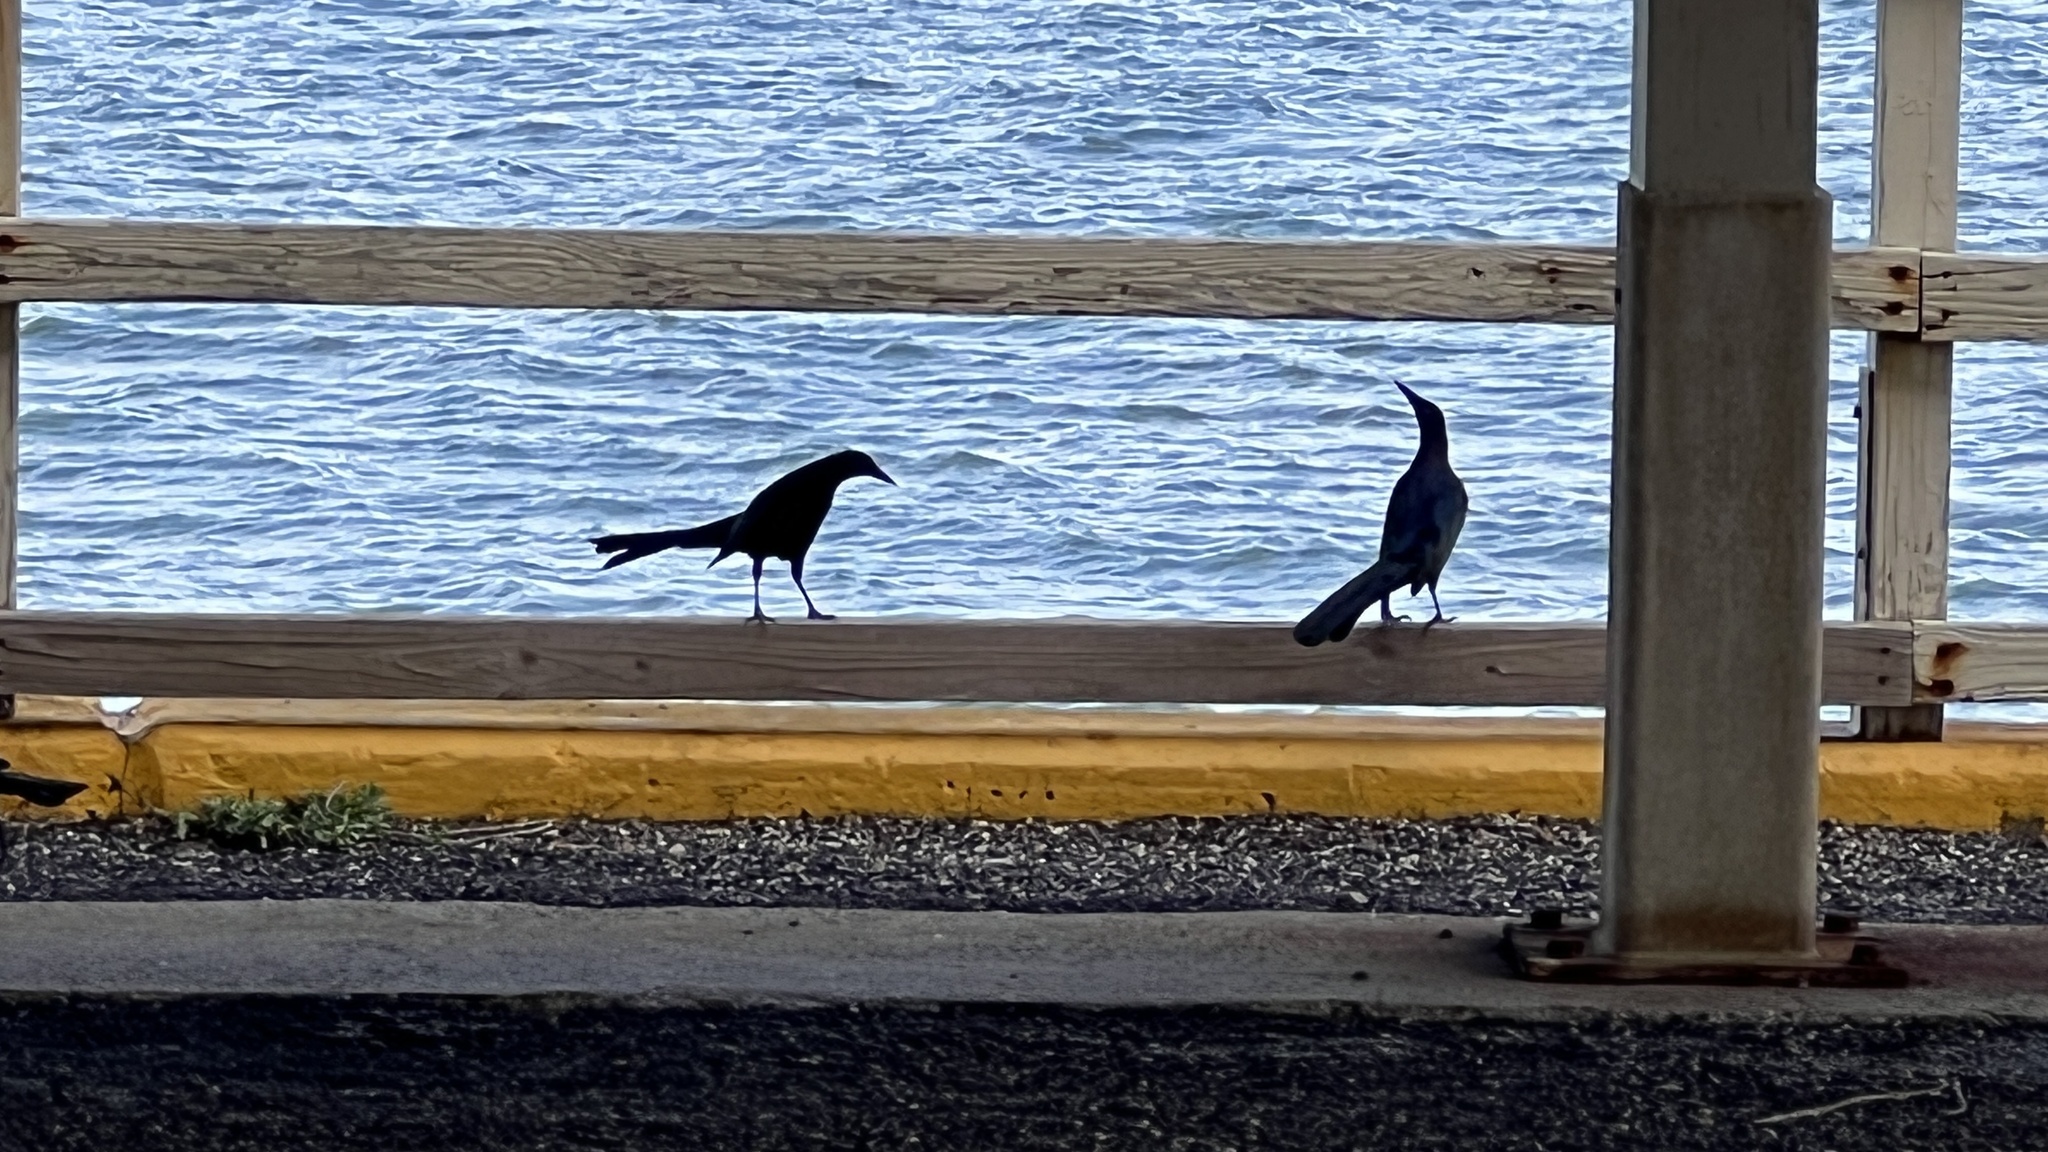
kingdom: Animalia
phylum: Chordata
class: Aves
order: Passeriformes
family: Icteridae
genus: Quiscalus
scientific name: Quiscalus mexicanus
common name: Great-tailed grackle
